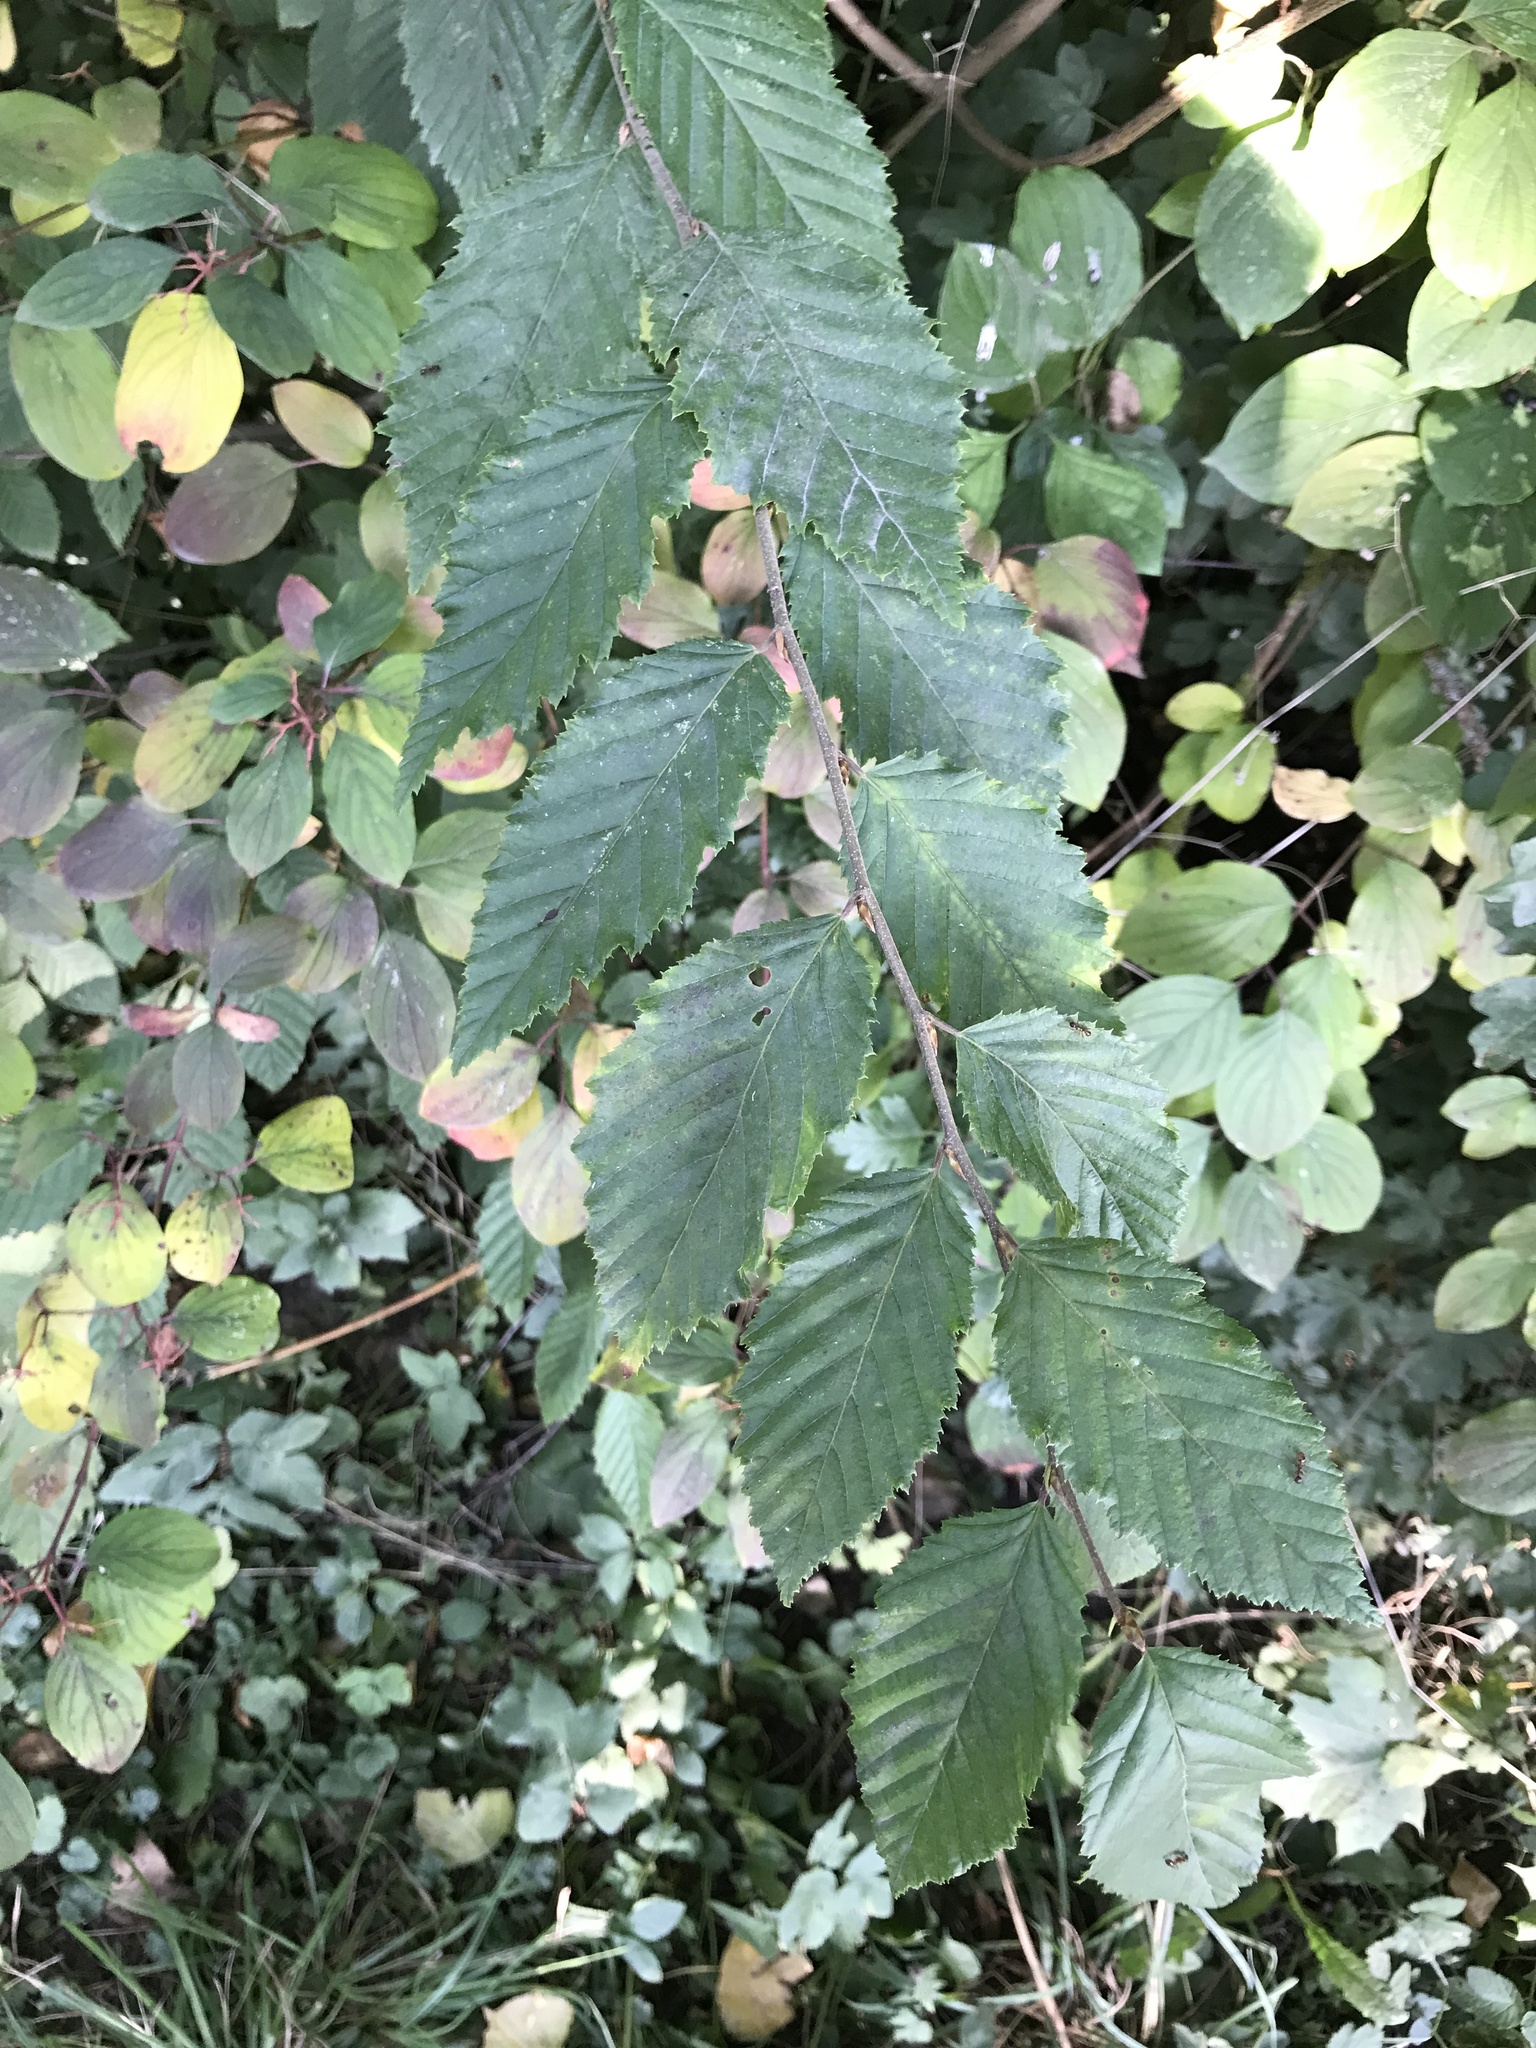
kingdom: Plantae
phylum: Tracheophyta
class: Magnoliopsida
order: Fagales
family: Betulaceae
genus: Carpinus
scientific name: Carpinus betulus
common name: Hornbeam
